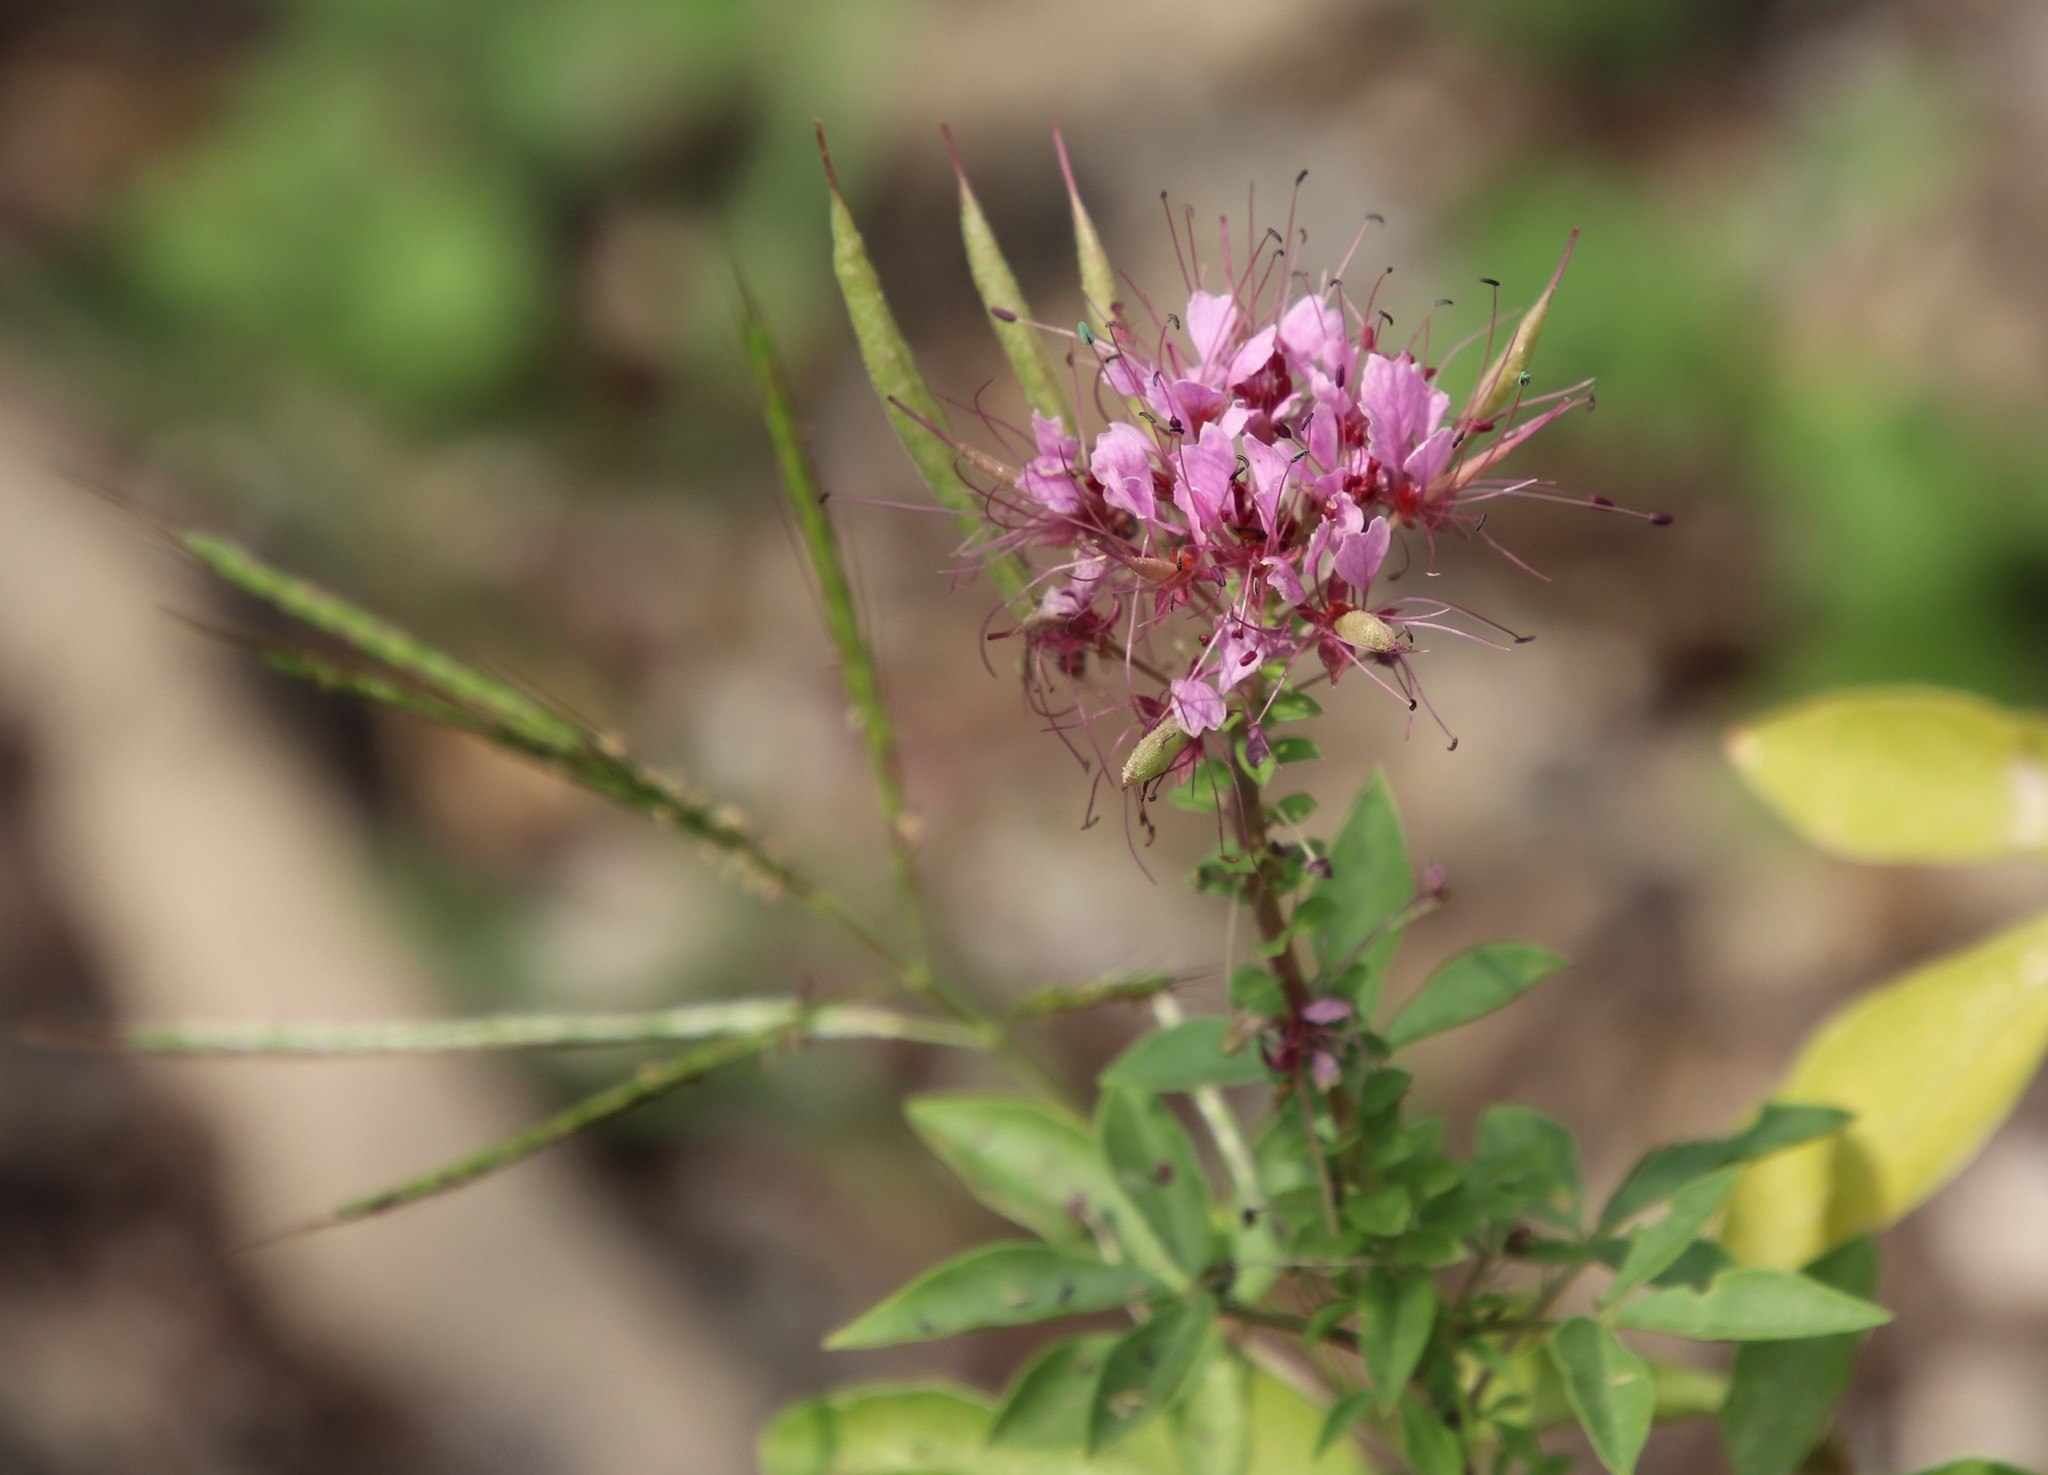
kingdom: Plantae
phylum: Tracheophyta
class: Magnoliopsida
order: Brassicales
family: Cleomaceae
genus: Polanisia
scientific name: Polanisia dodecandra
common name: Clammyweed
